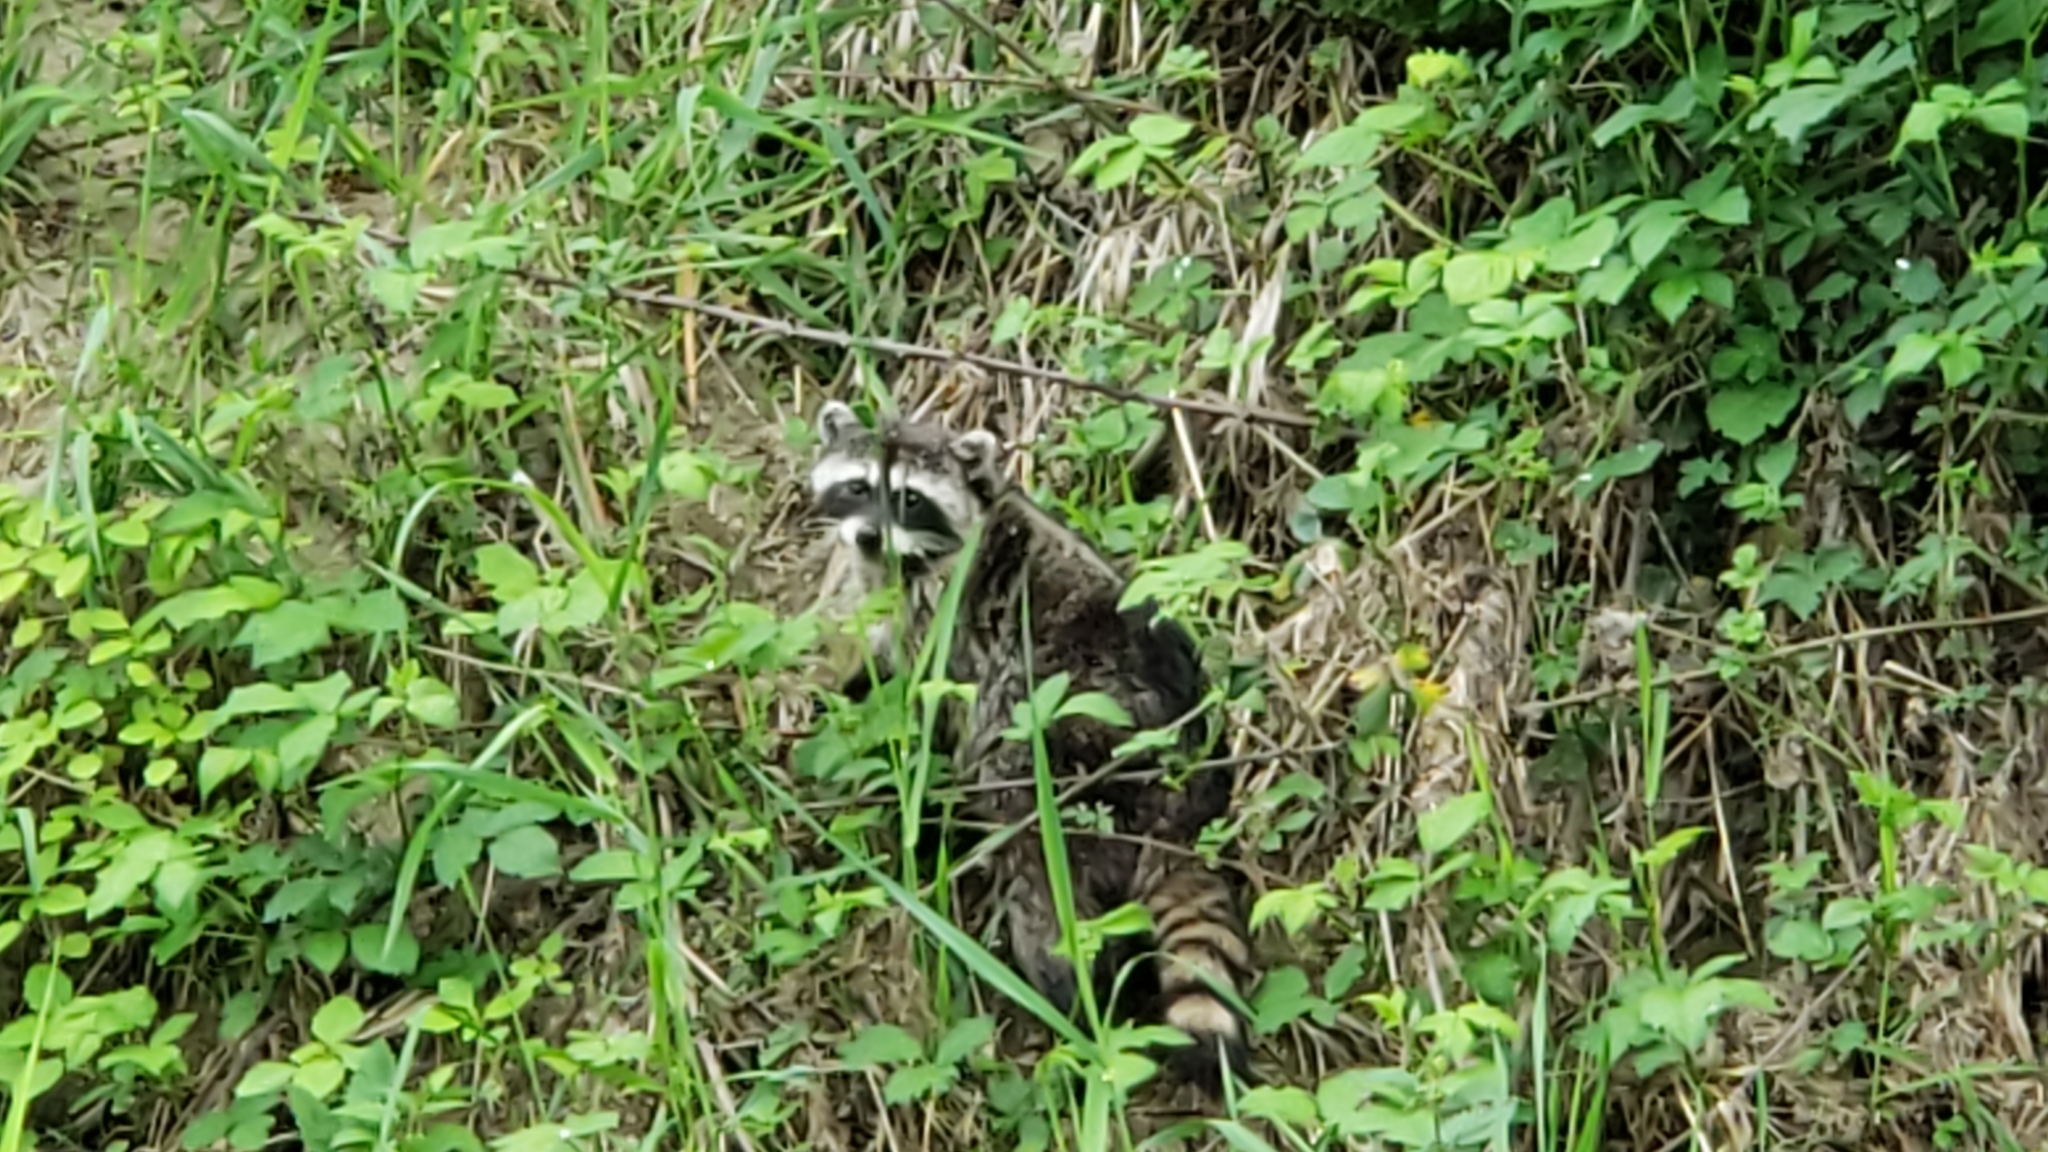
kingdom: Animalia
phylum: Chordata
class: Mammalia
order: Carnivora
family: Procyonidae
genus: Procyon
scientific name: Procyon lotor
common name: Raccoon
